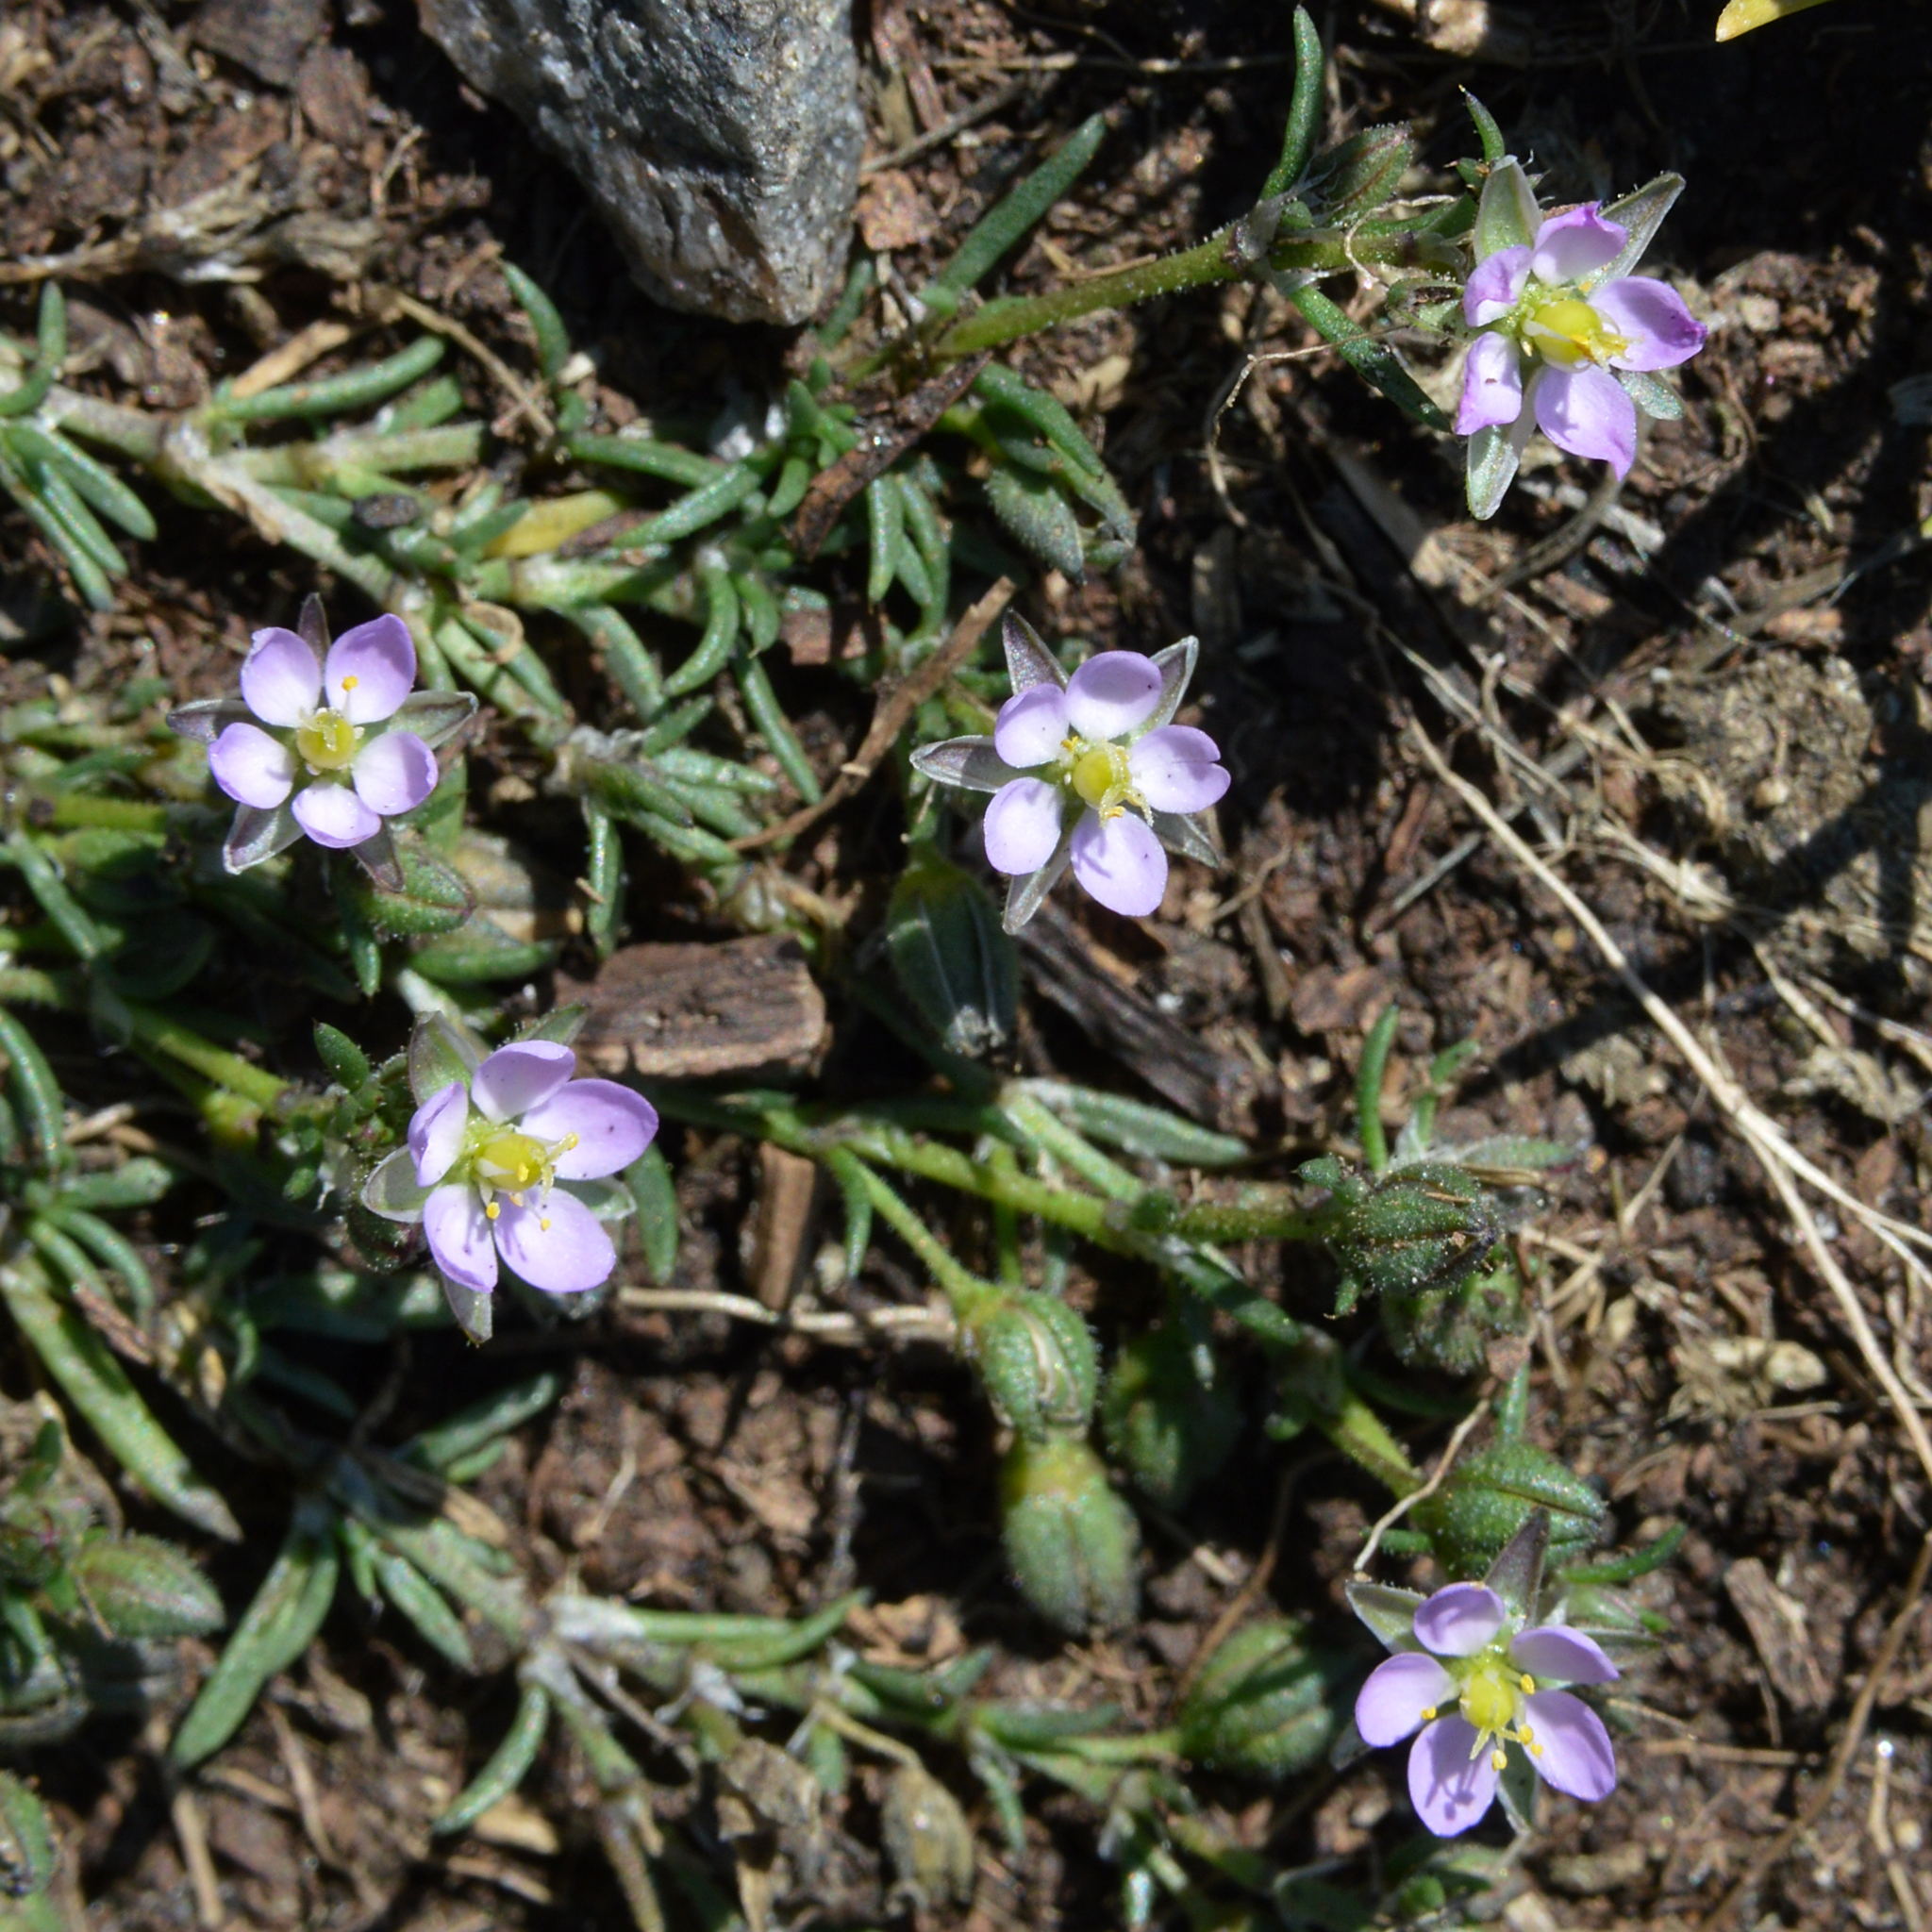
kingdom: Plantae
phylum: Tracheophyta
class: Magnoliopsida
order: Caryophyllales
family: Caryophyllaceae
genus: Spergularia
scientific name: Spergularia marina
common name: Lesser sea-spurrey
